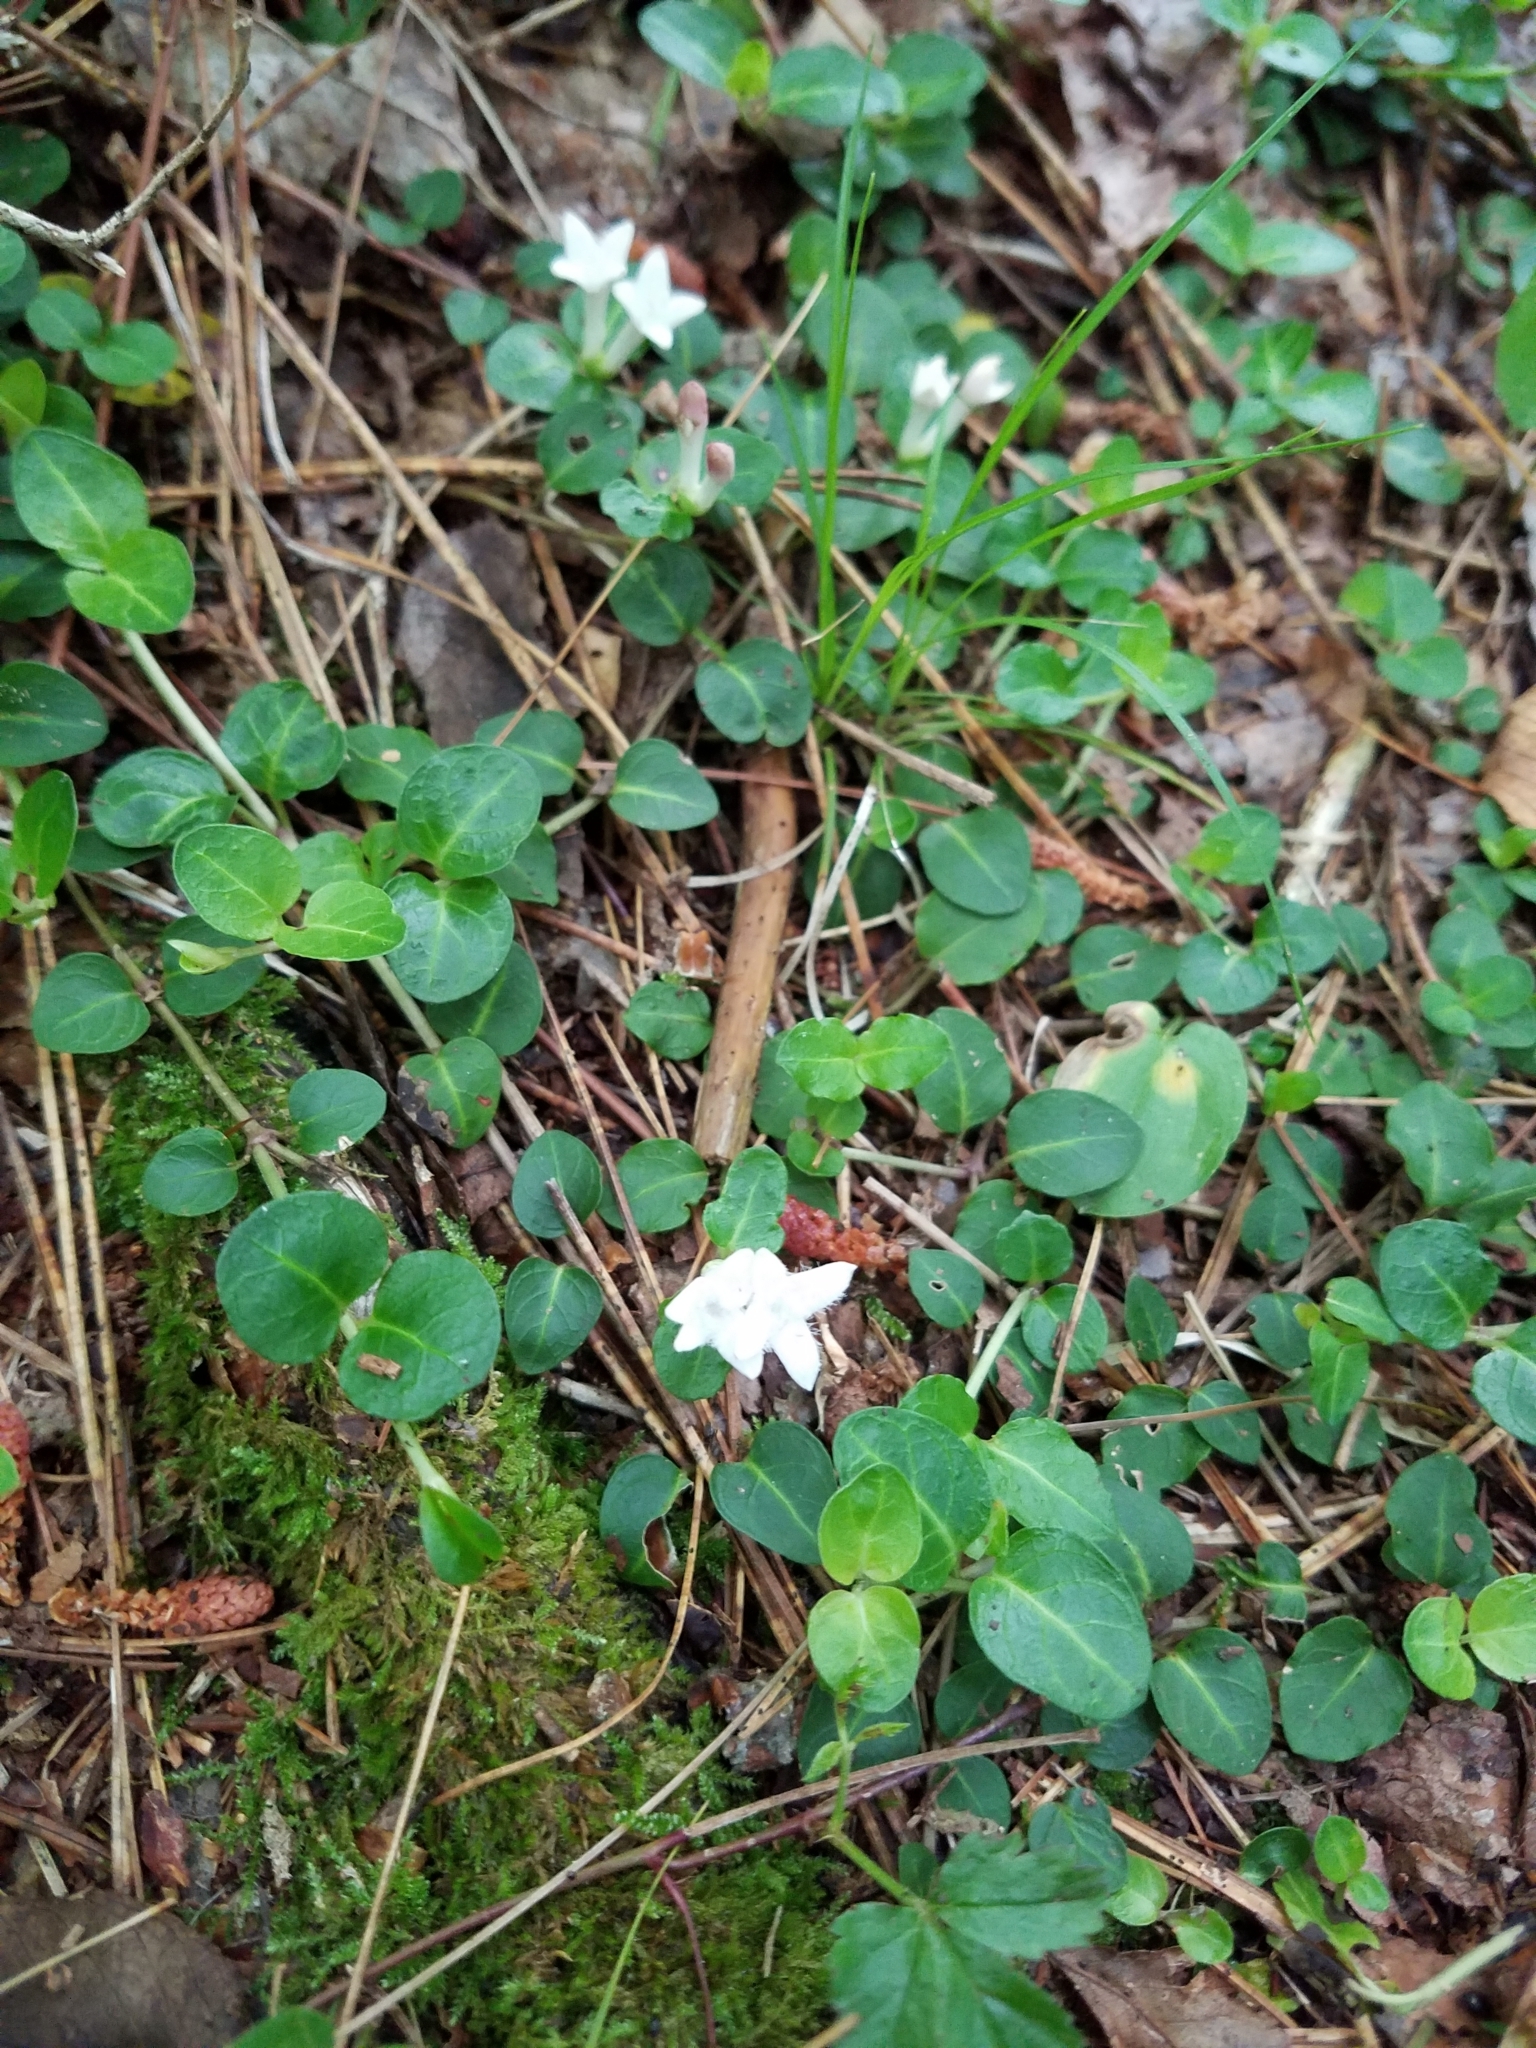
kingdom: Plantae
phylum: Tracheophyta
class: Magnoliopsida
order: Gentianales
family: Rubiaceae
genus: Mitchella
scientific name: Mitchella repens
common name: Partridge-berry
